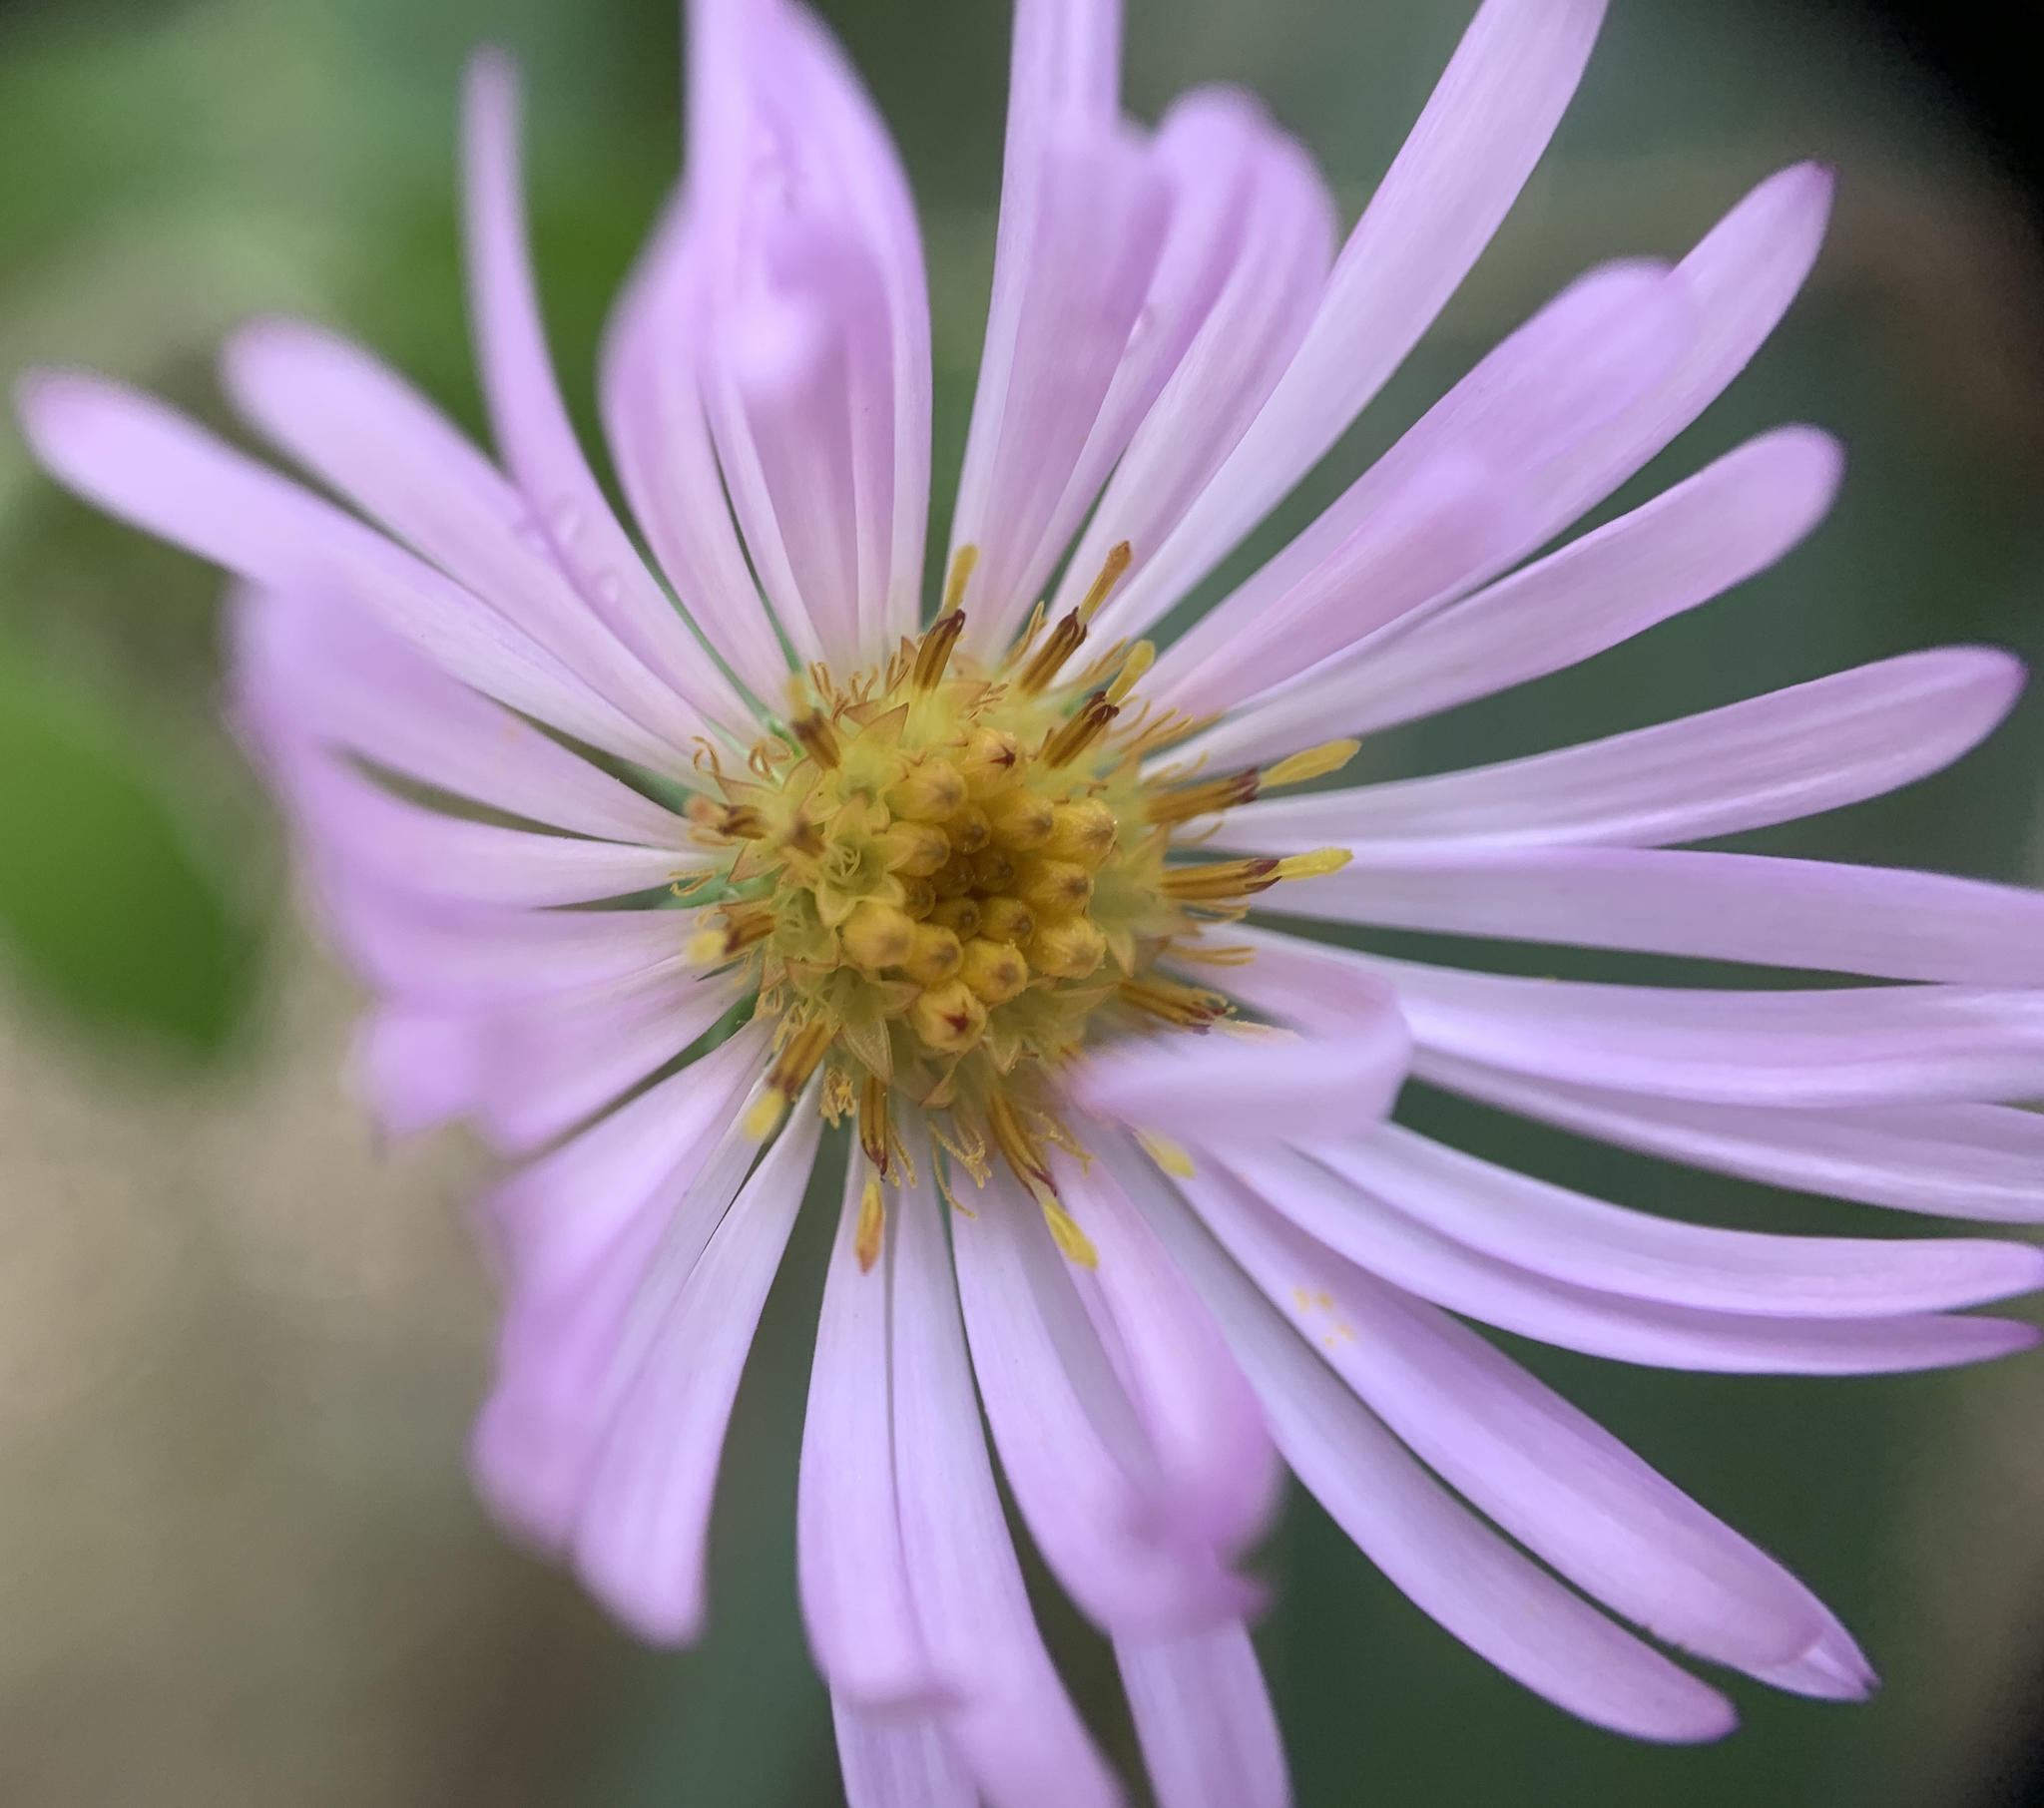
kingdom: Plantae
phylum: Tracheophyta
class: Magnoliopsida
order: Asterales
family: Asteraceae
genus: Ampelaster
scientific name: Ampelaster carolinianus
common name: Climbing aster
